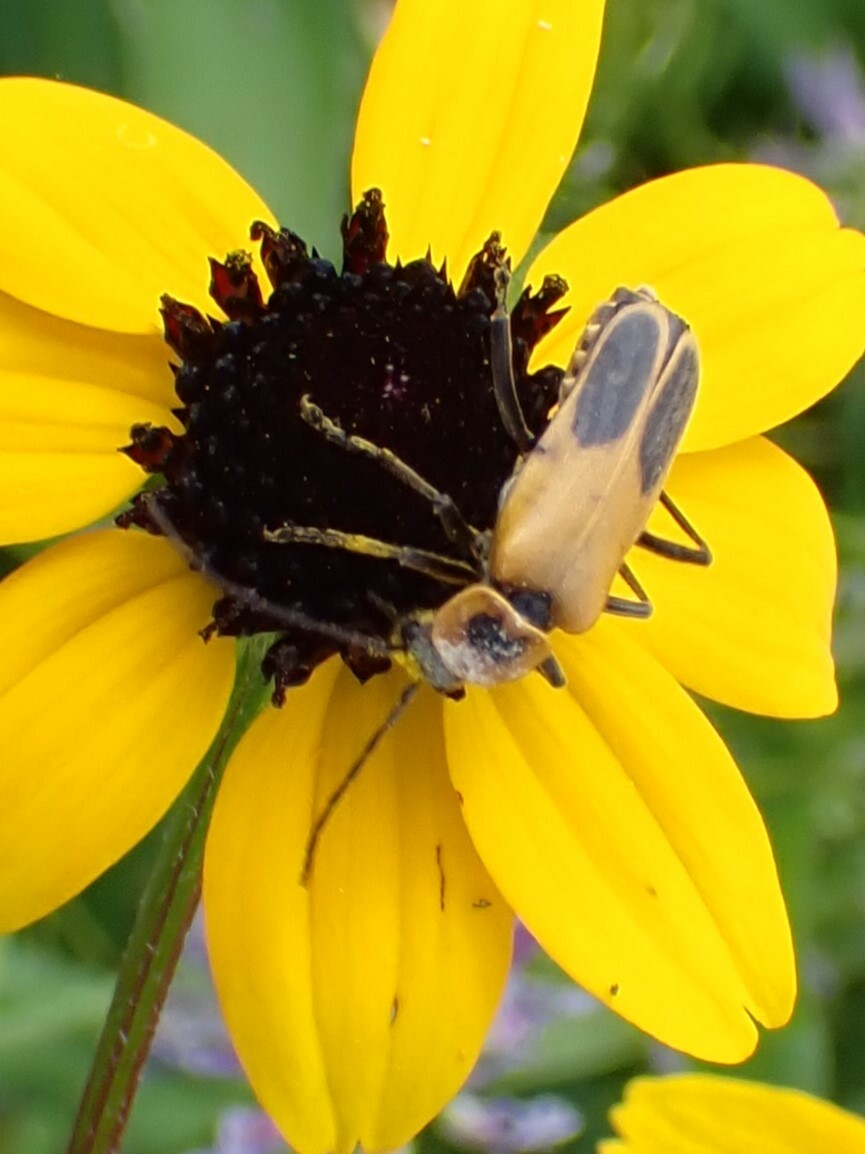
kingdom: Animalia
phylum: Arthropoda
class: Insecta
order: Coleoptera
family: Cantharidae
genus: Chauliognathus
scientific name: Chauliognathus pensylvanicus
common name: Goldenrod soldier beetle
